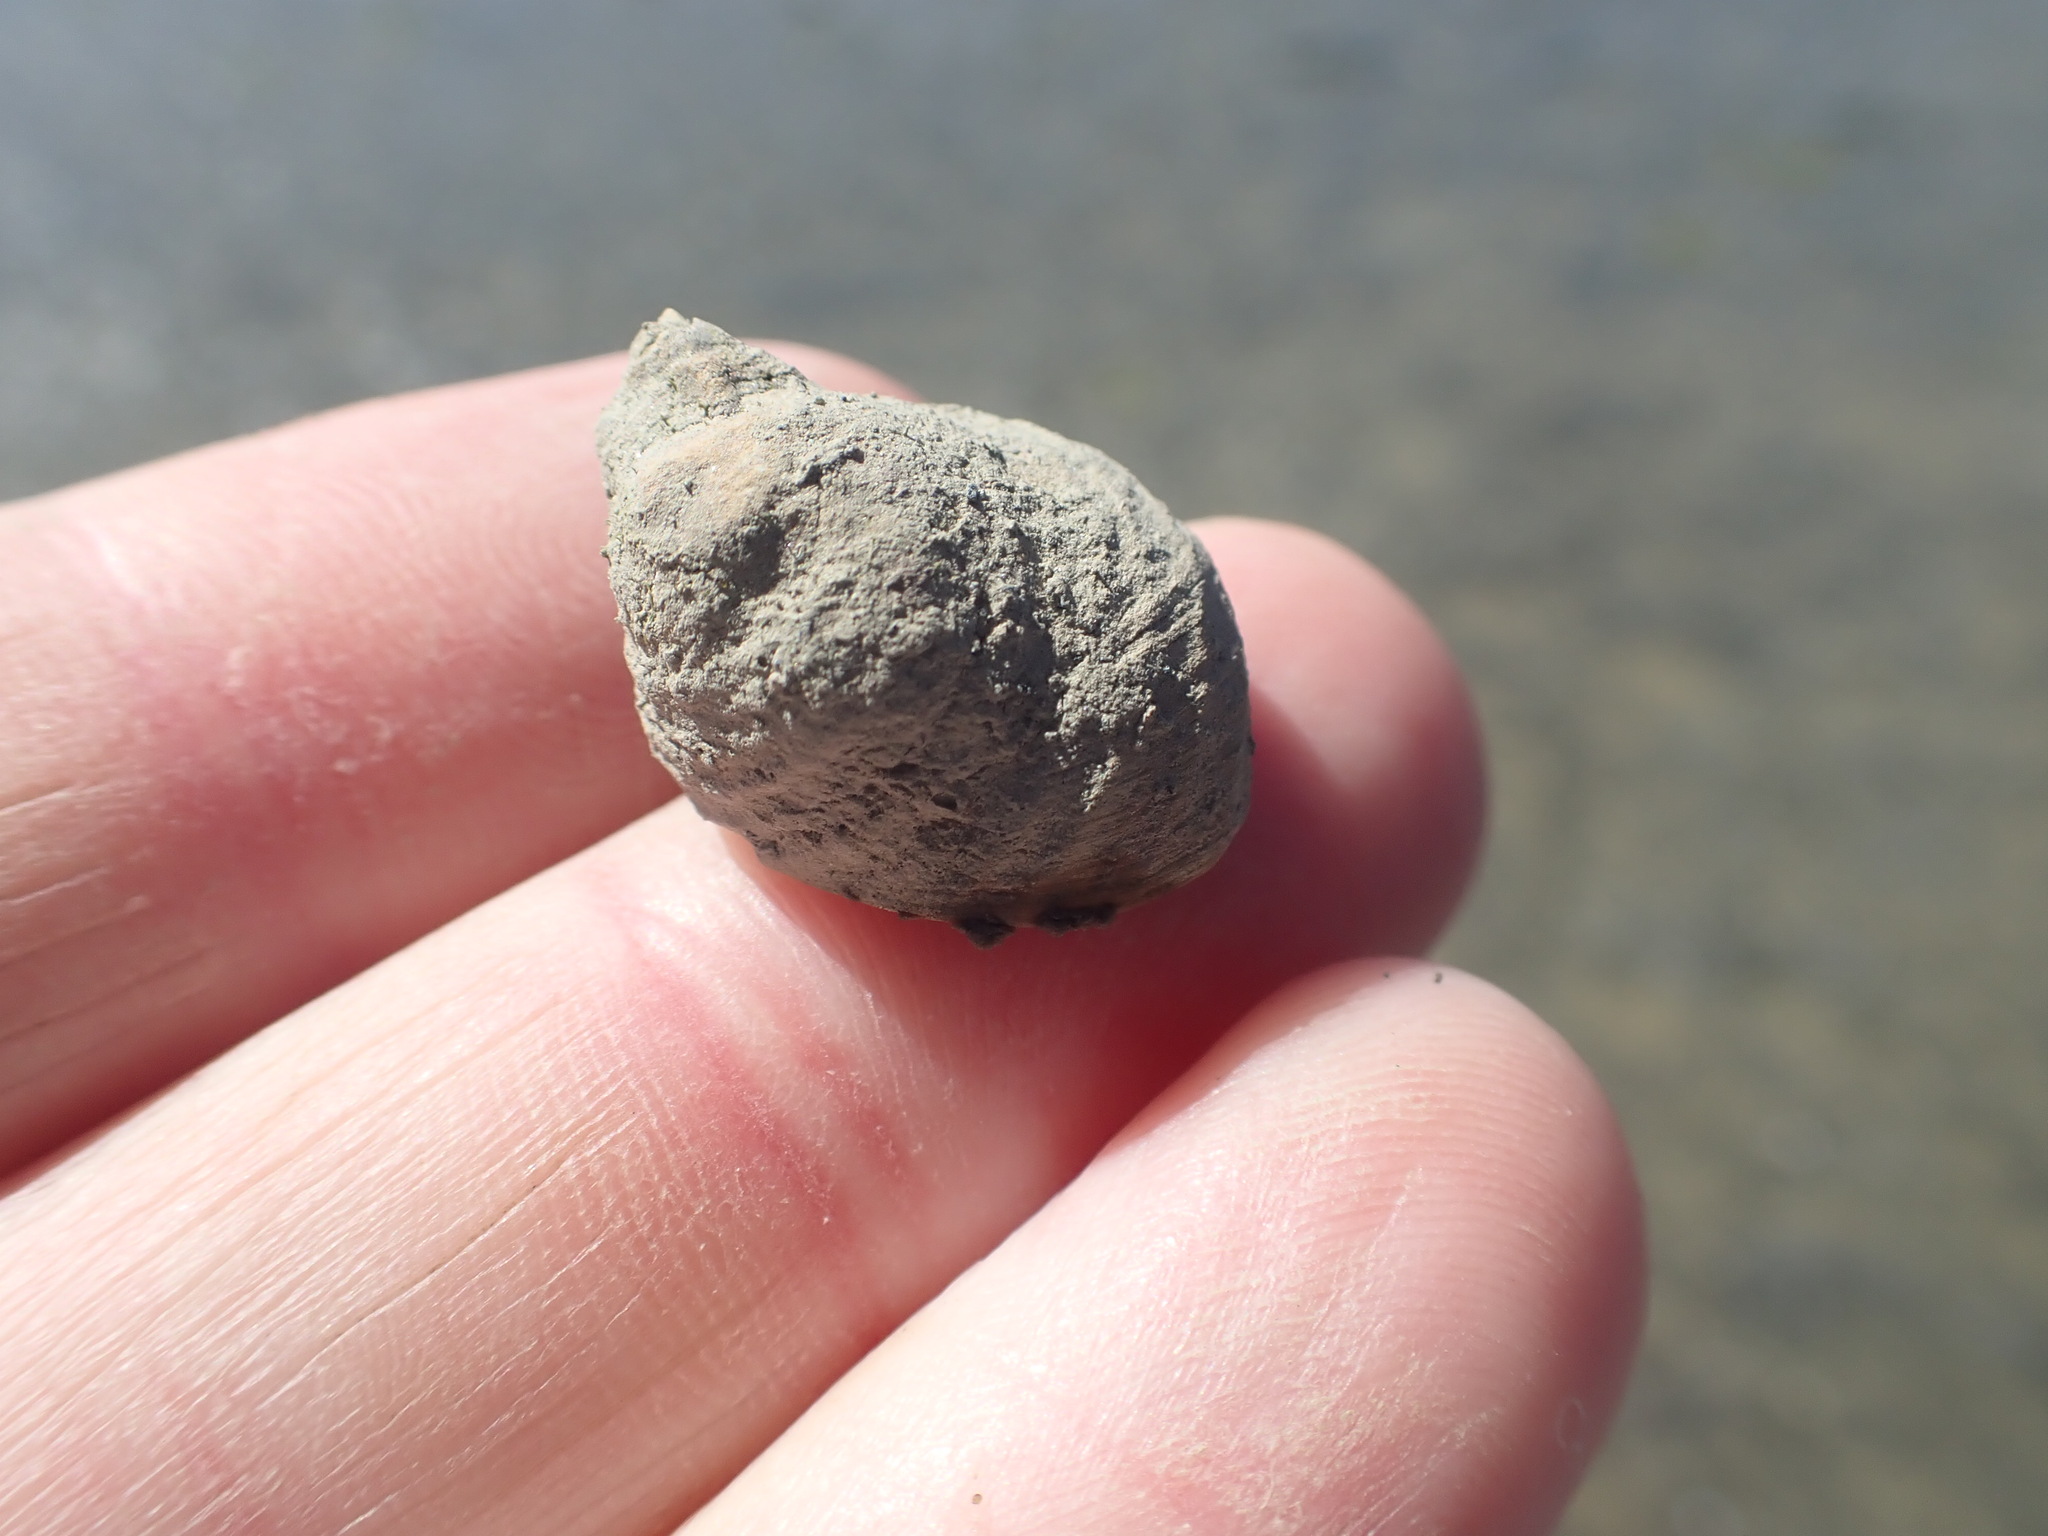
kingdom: Animalia
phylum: Mollusca
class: Gastropoda
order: Trochida
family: Trochidae
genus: Diloma
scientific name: Diloma subrostratum
